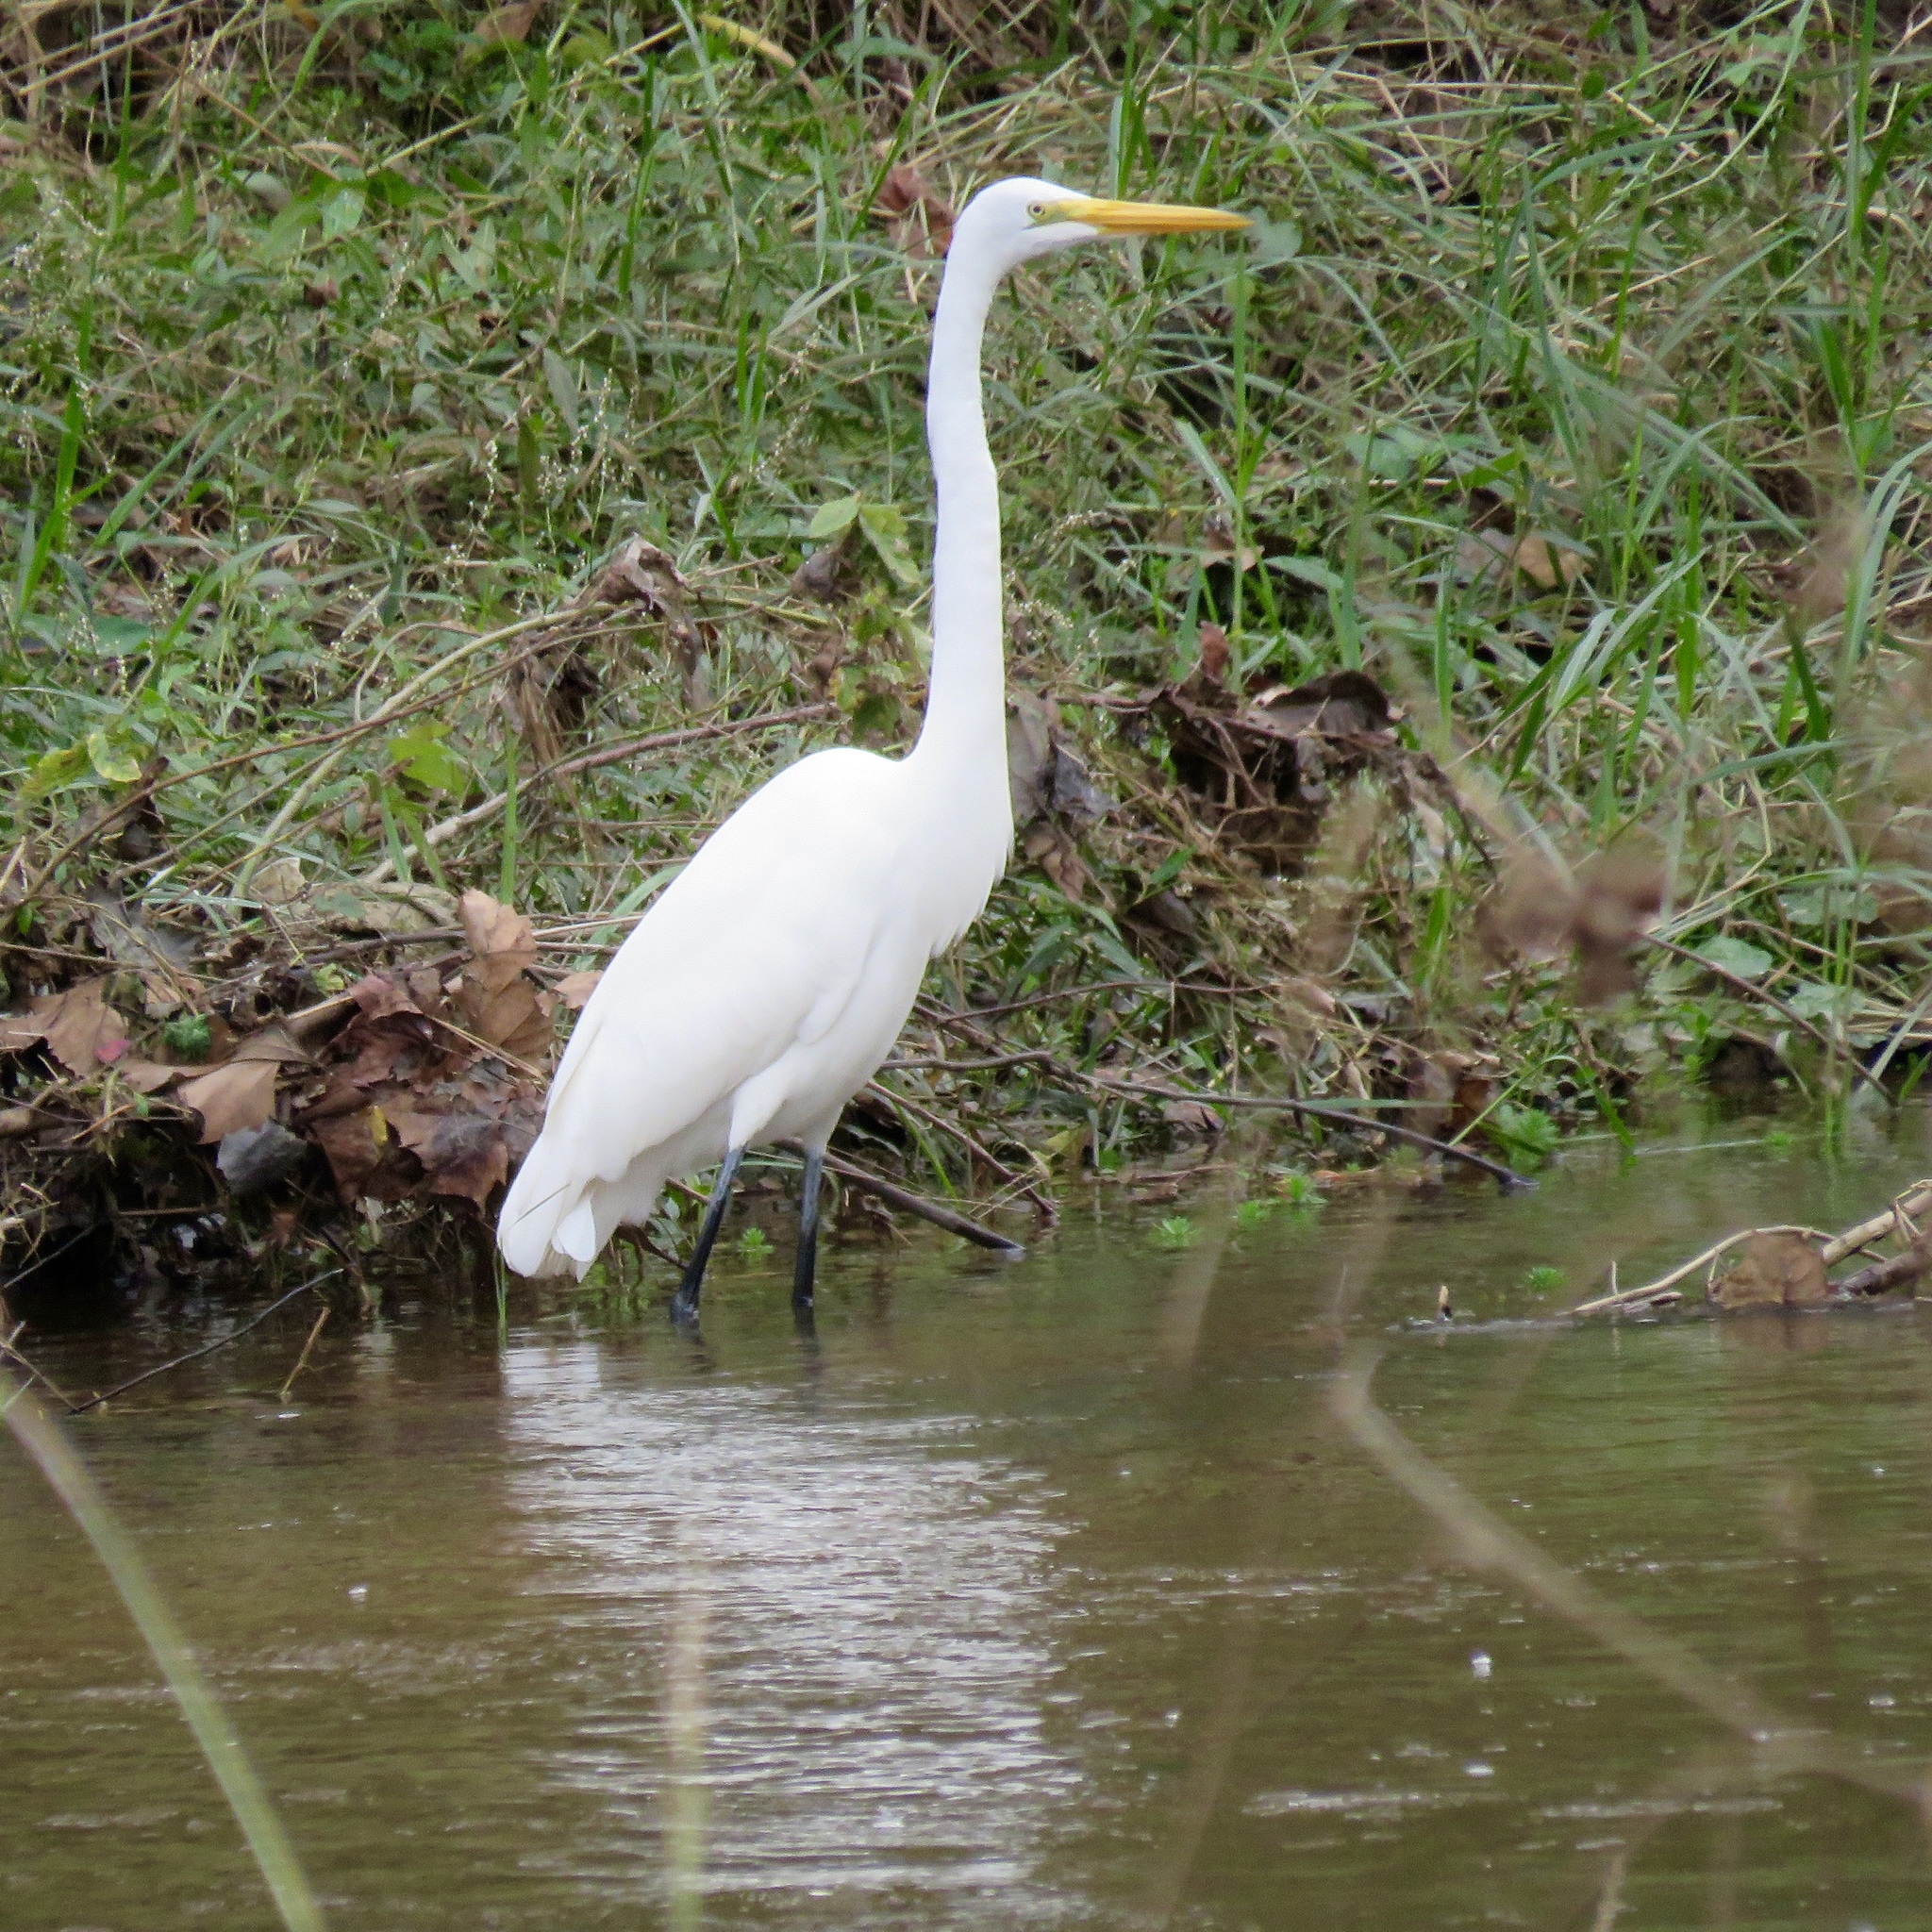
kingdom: Animalia
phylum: Chordata
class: Aves
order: Pelecaniformes
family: Ardeidae
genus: Ardea
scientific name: Ardea alba
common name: Great egret
